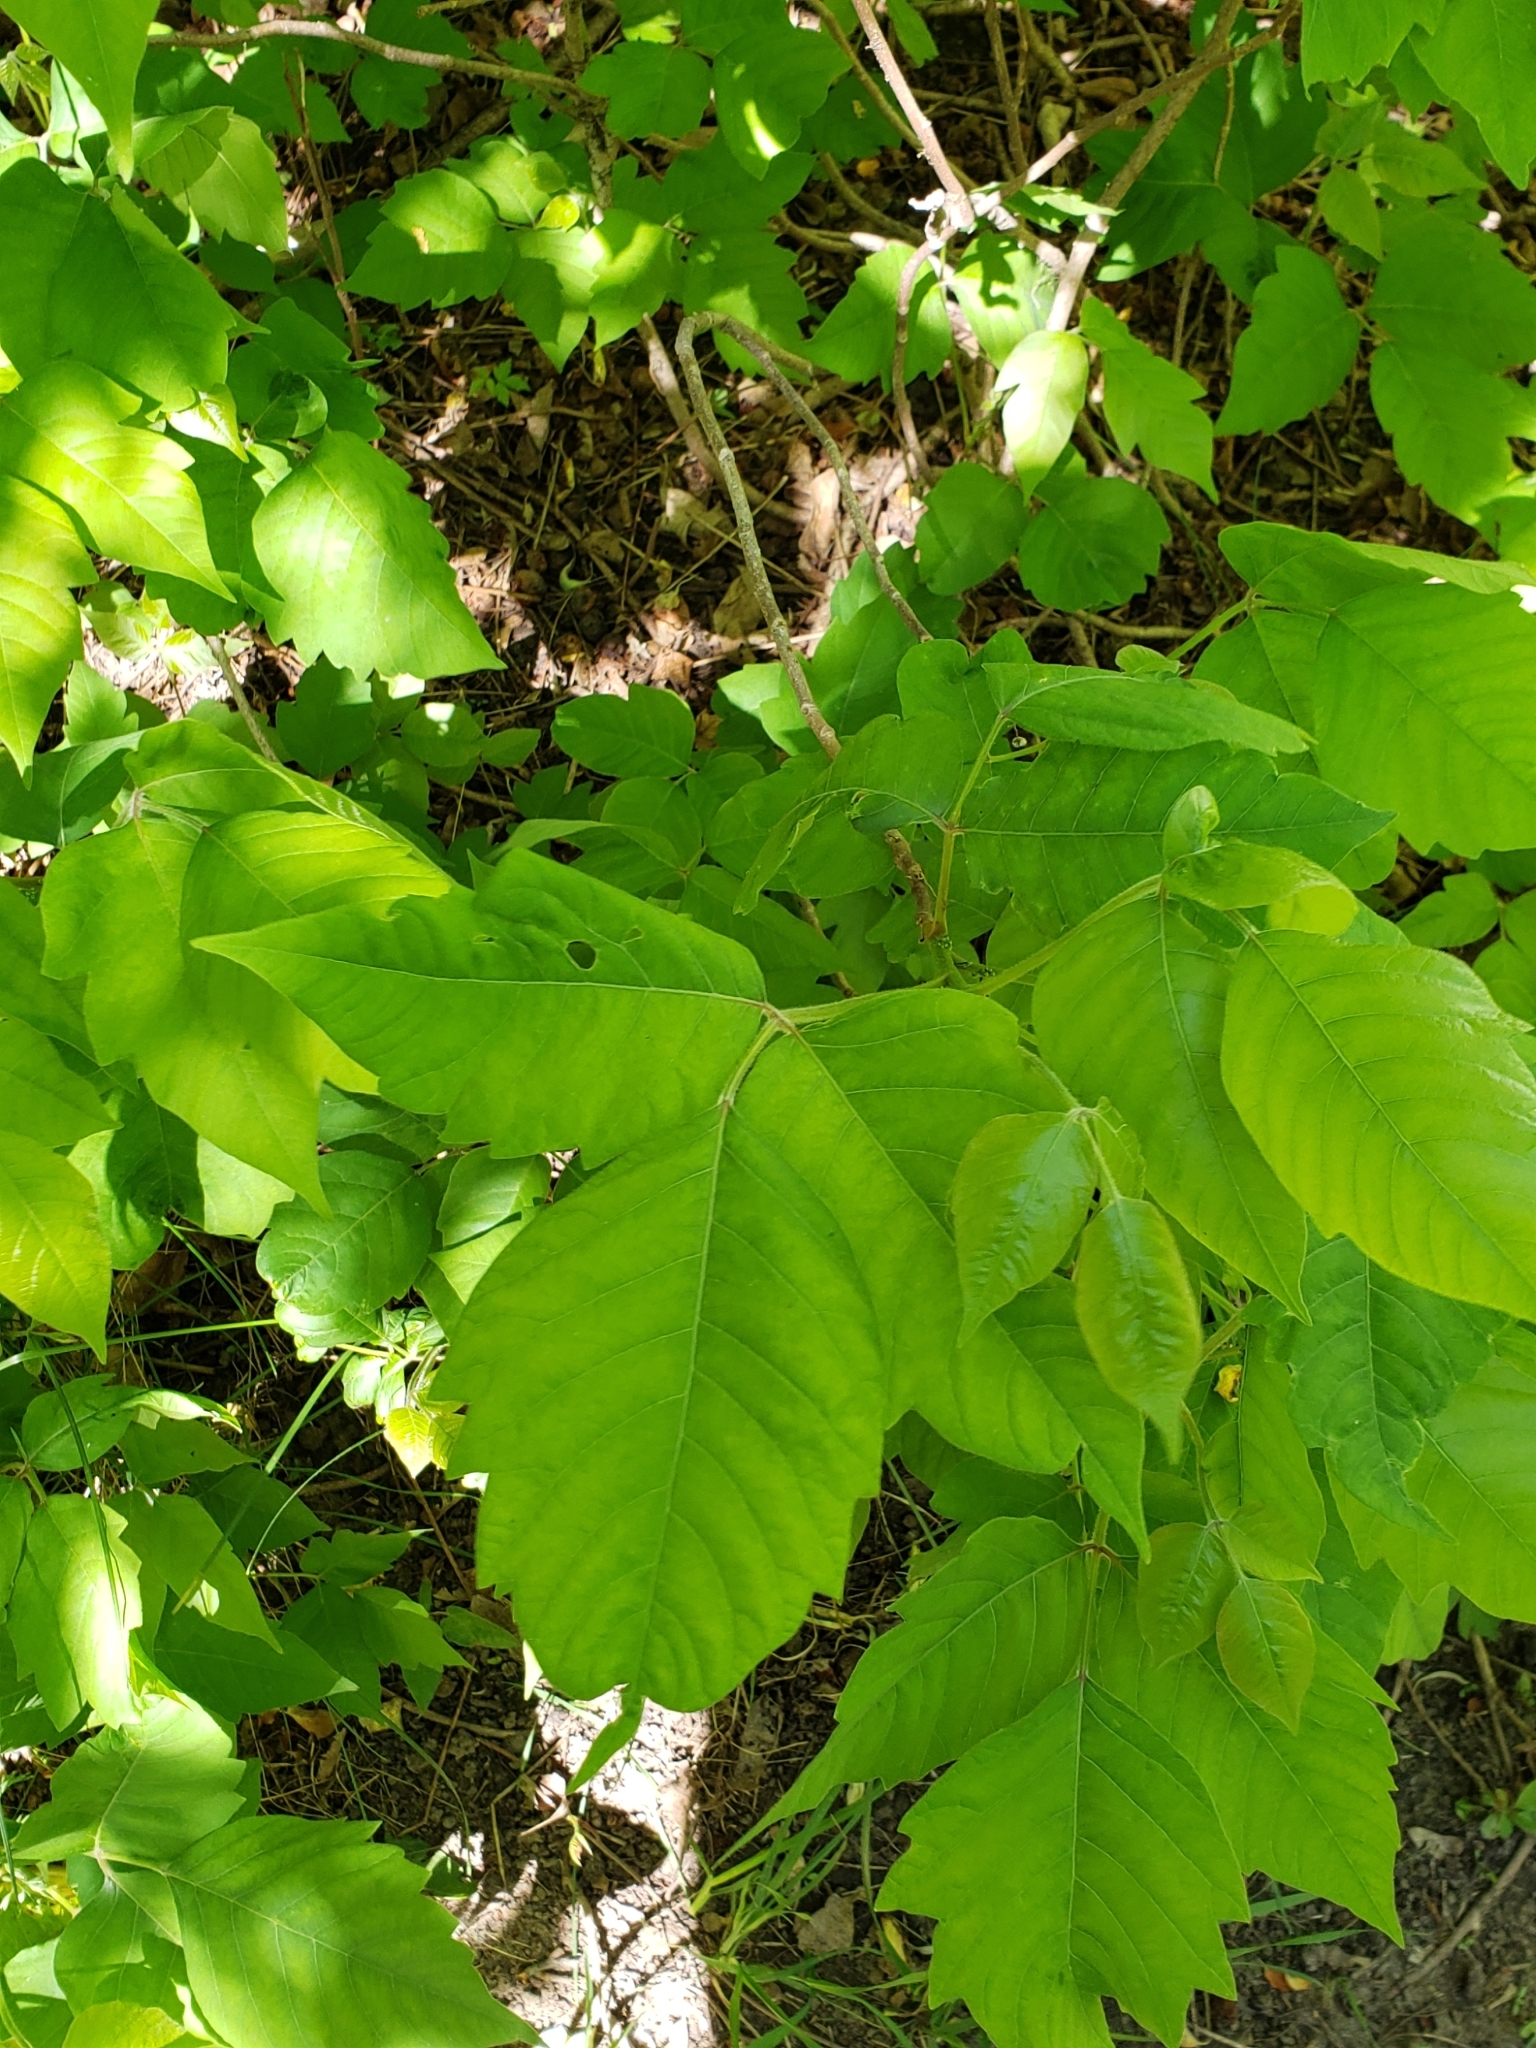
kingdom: Plantae
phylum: Tracheophyta
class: Magnoliopsida
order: Sapindales
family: Anacardiaceae
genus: Toxicodendron
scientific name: Toxicodendron radicans
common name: Poison ivy
